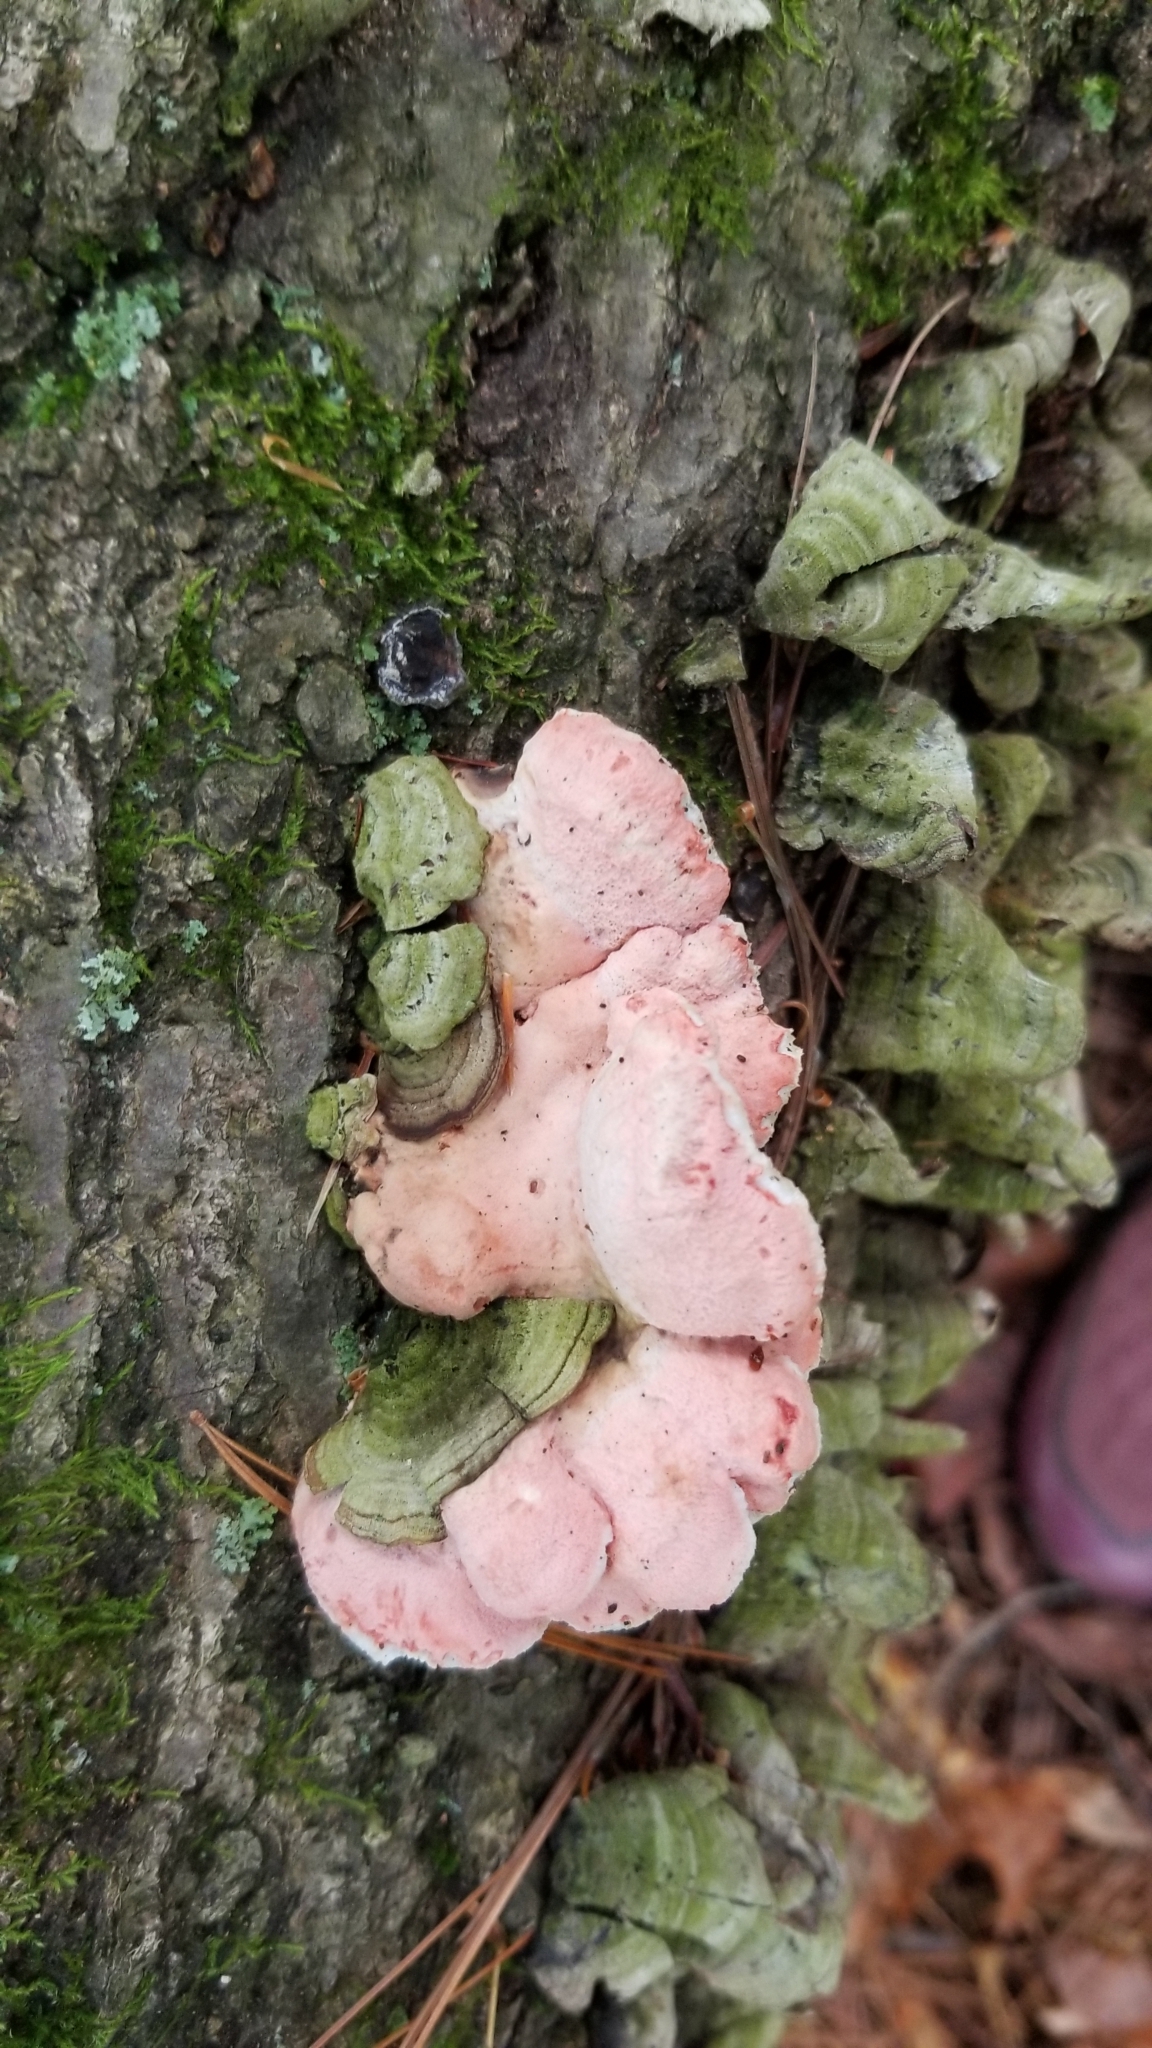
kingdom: Fungi
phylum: Basidiomycota
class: Agaricomycetes
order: Polyporales
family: Irpicaceae
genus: Byssomerulius
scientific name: Byssomerulius incarnatus
